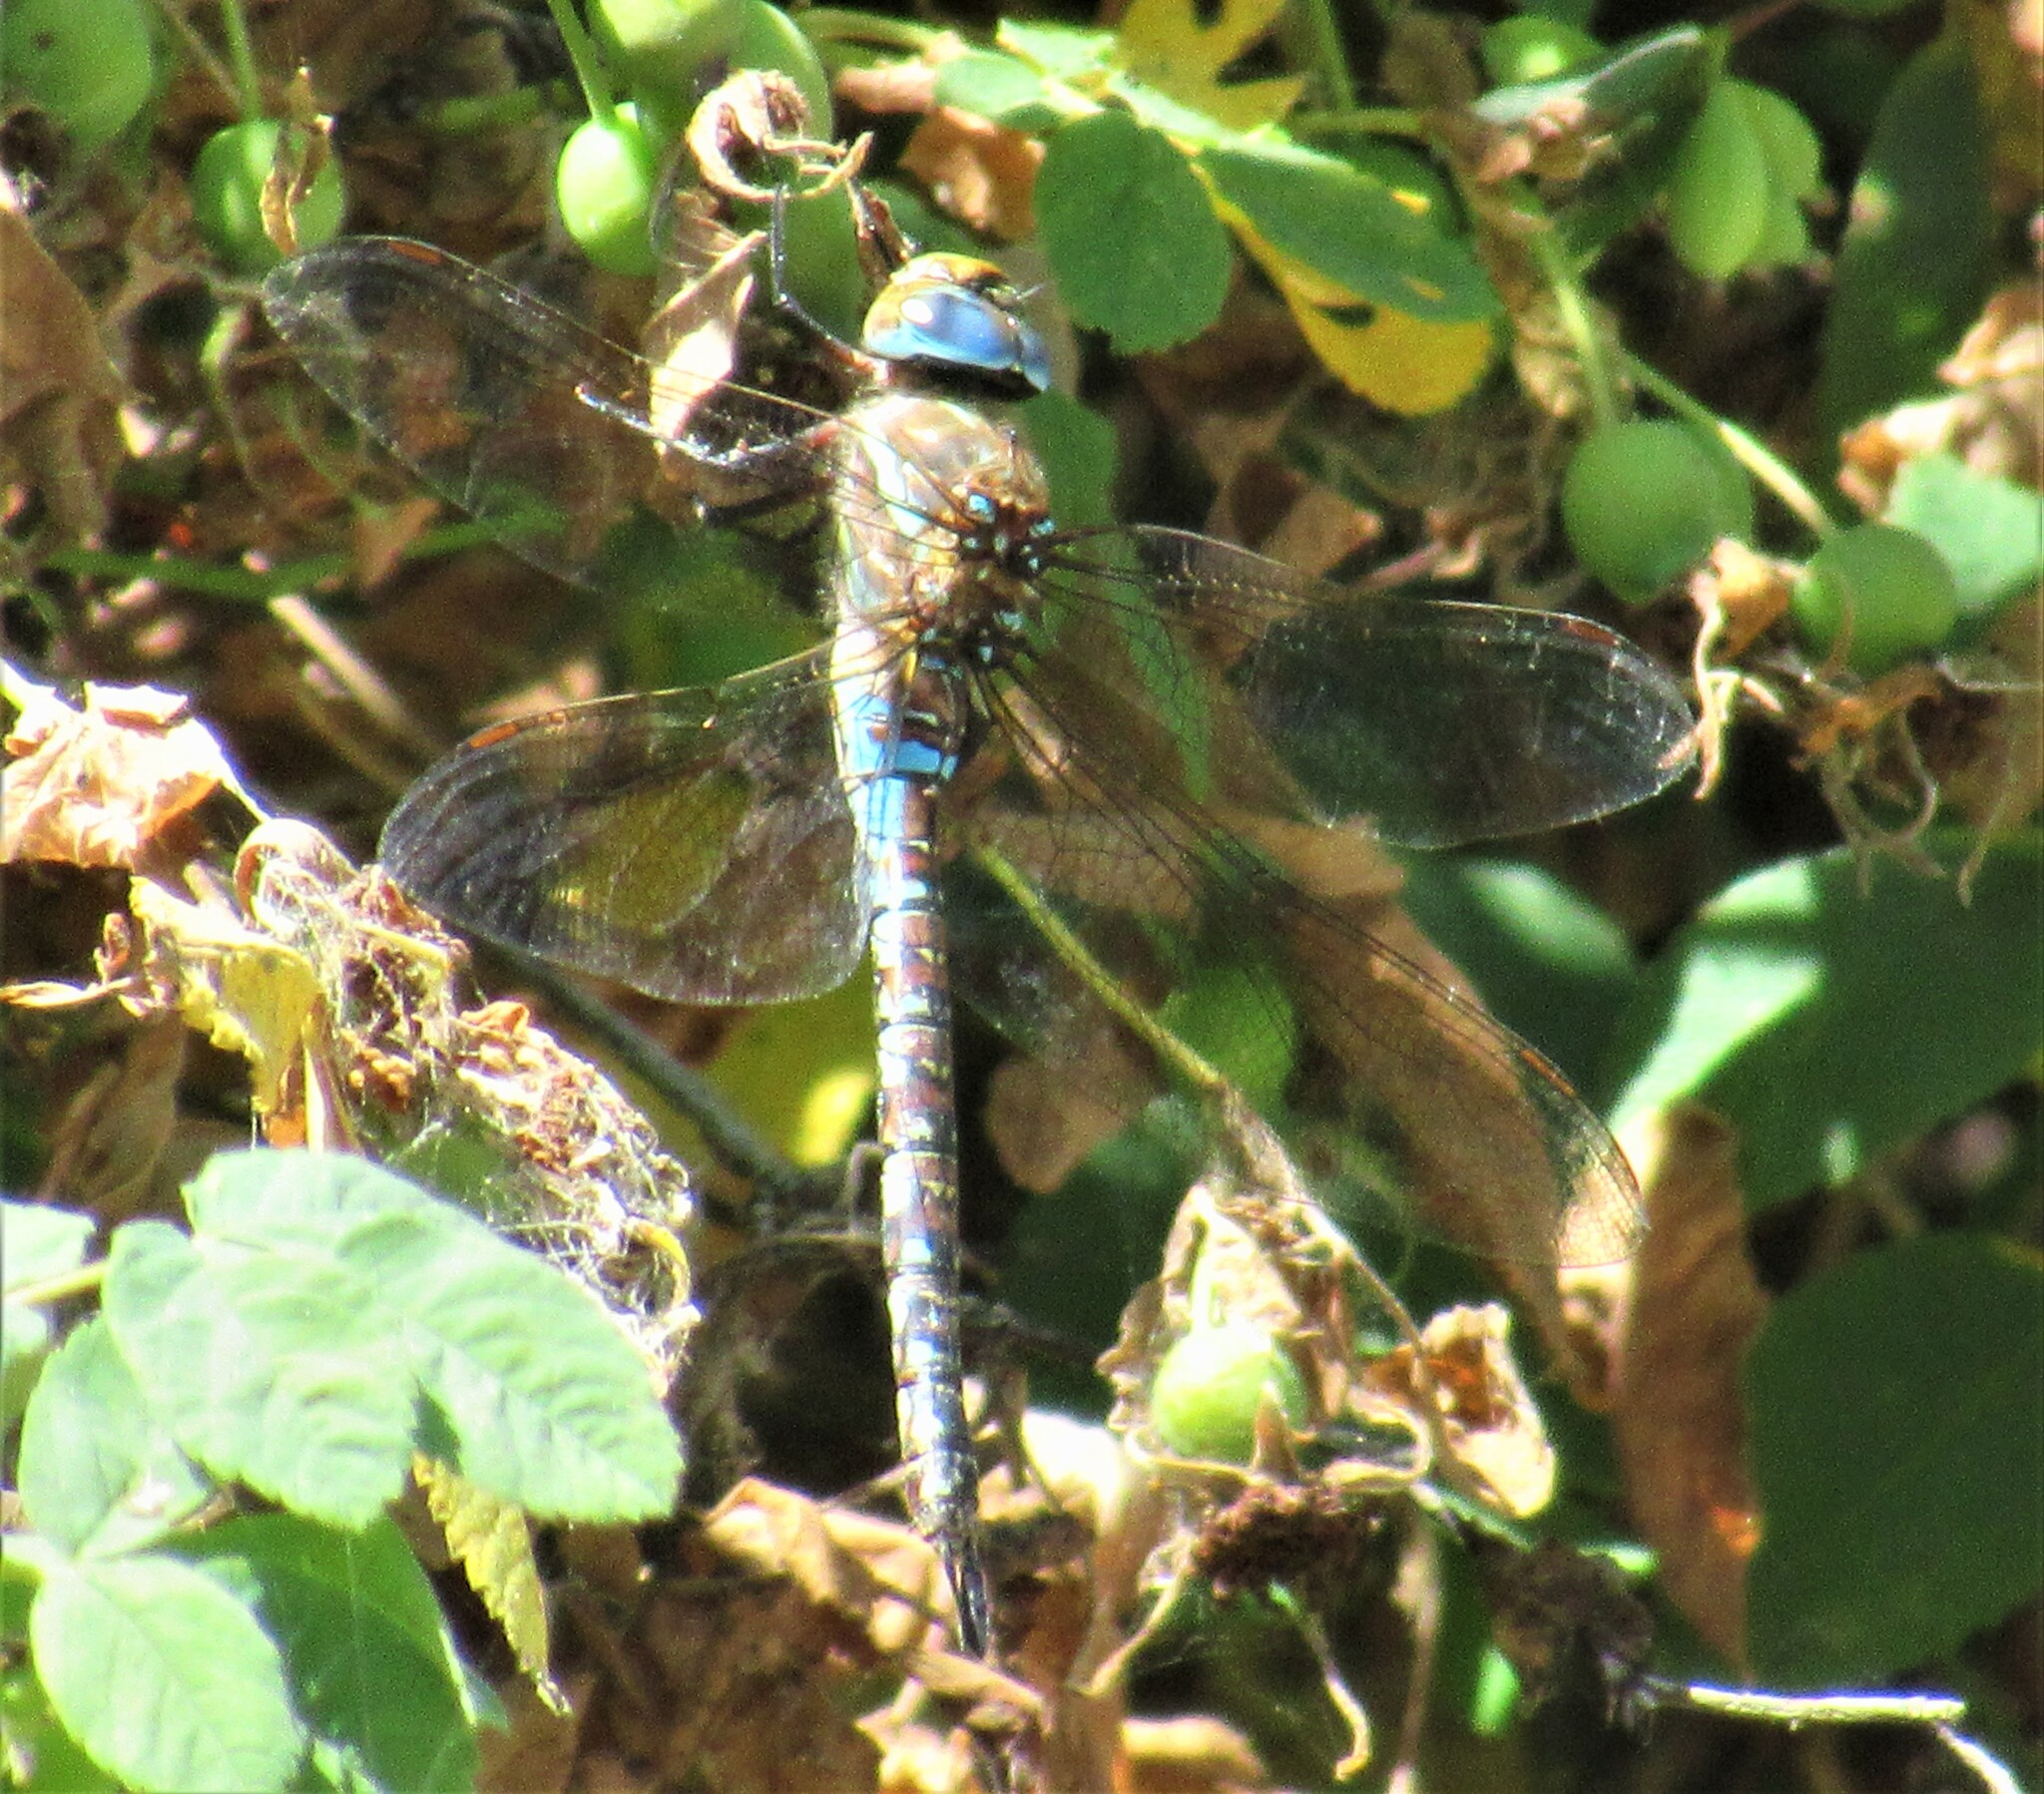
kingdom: Animalia
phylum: Arthropoda
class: Insecta
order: Odonata
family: Aeshnidae
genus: Rhionaeschna
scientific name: Rhionaeschna multicolor
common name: Blue-eyed darner
